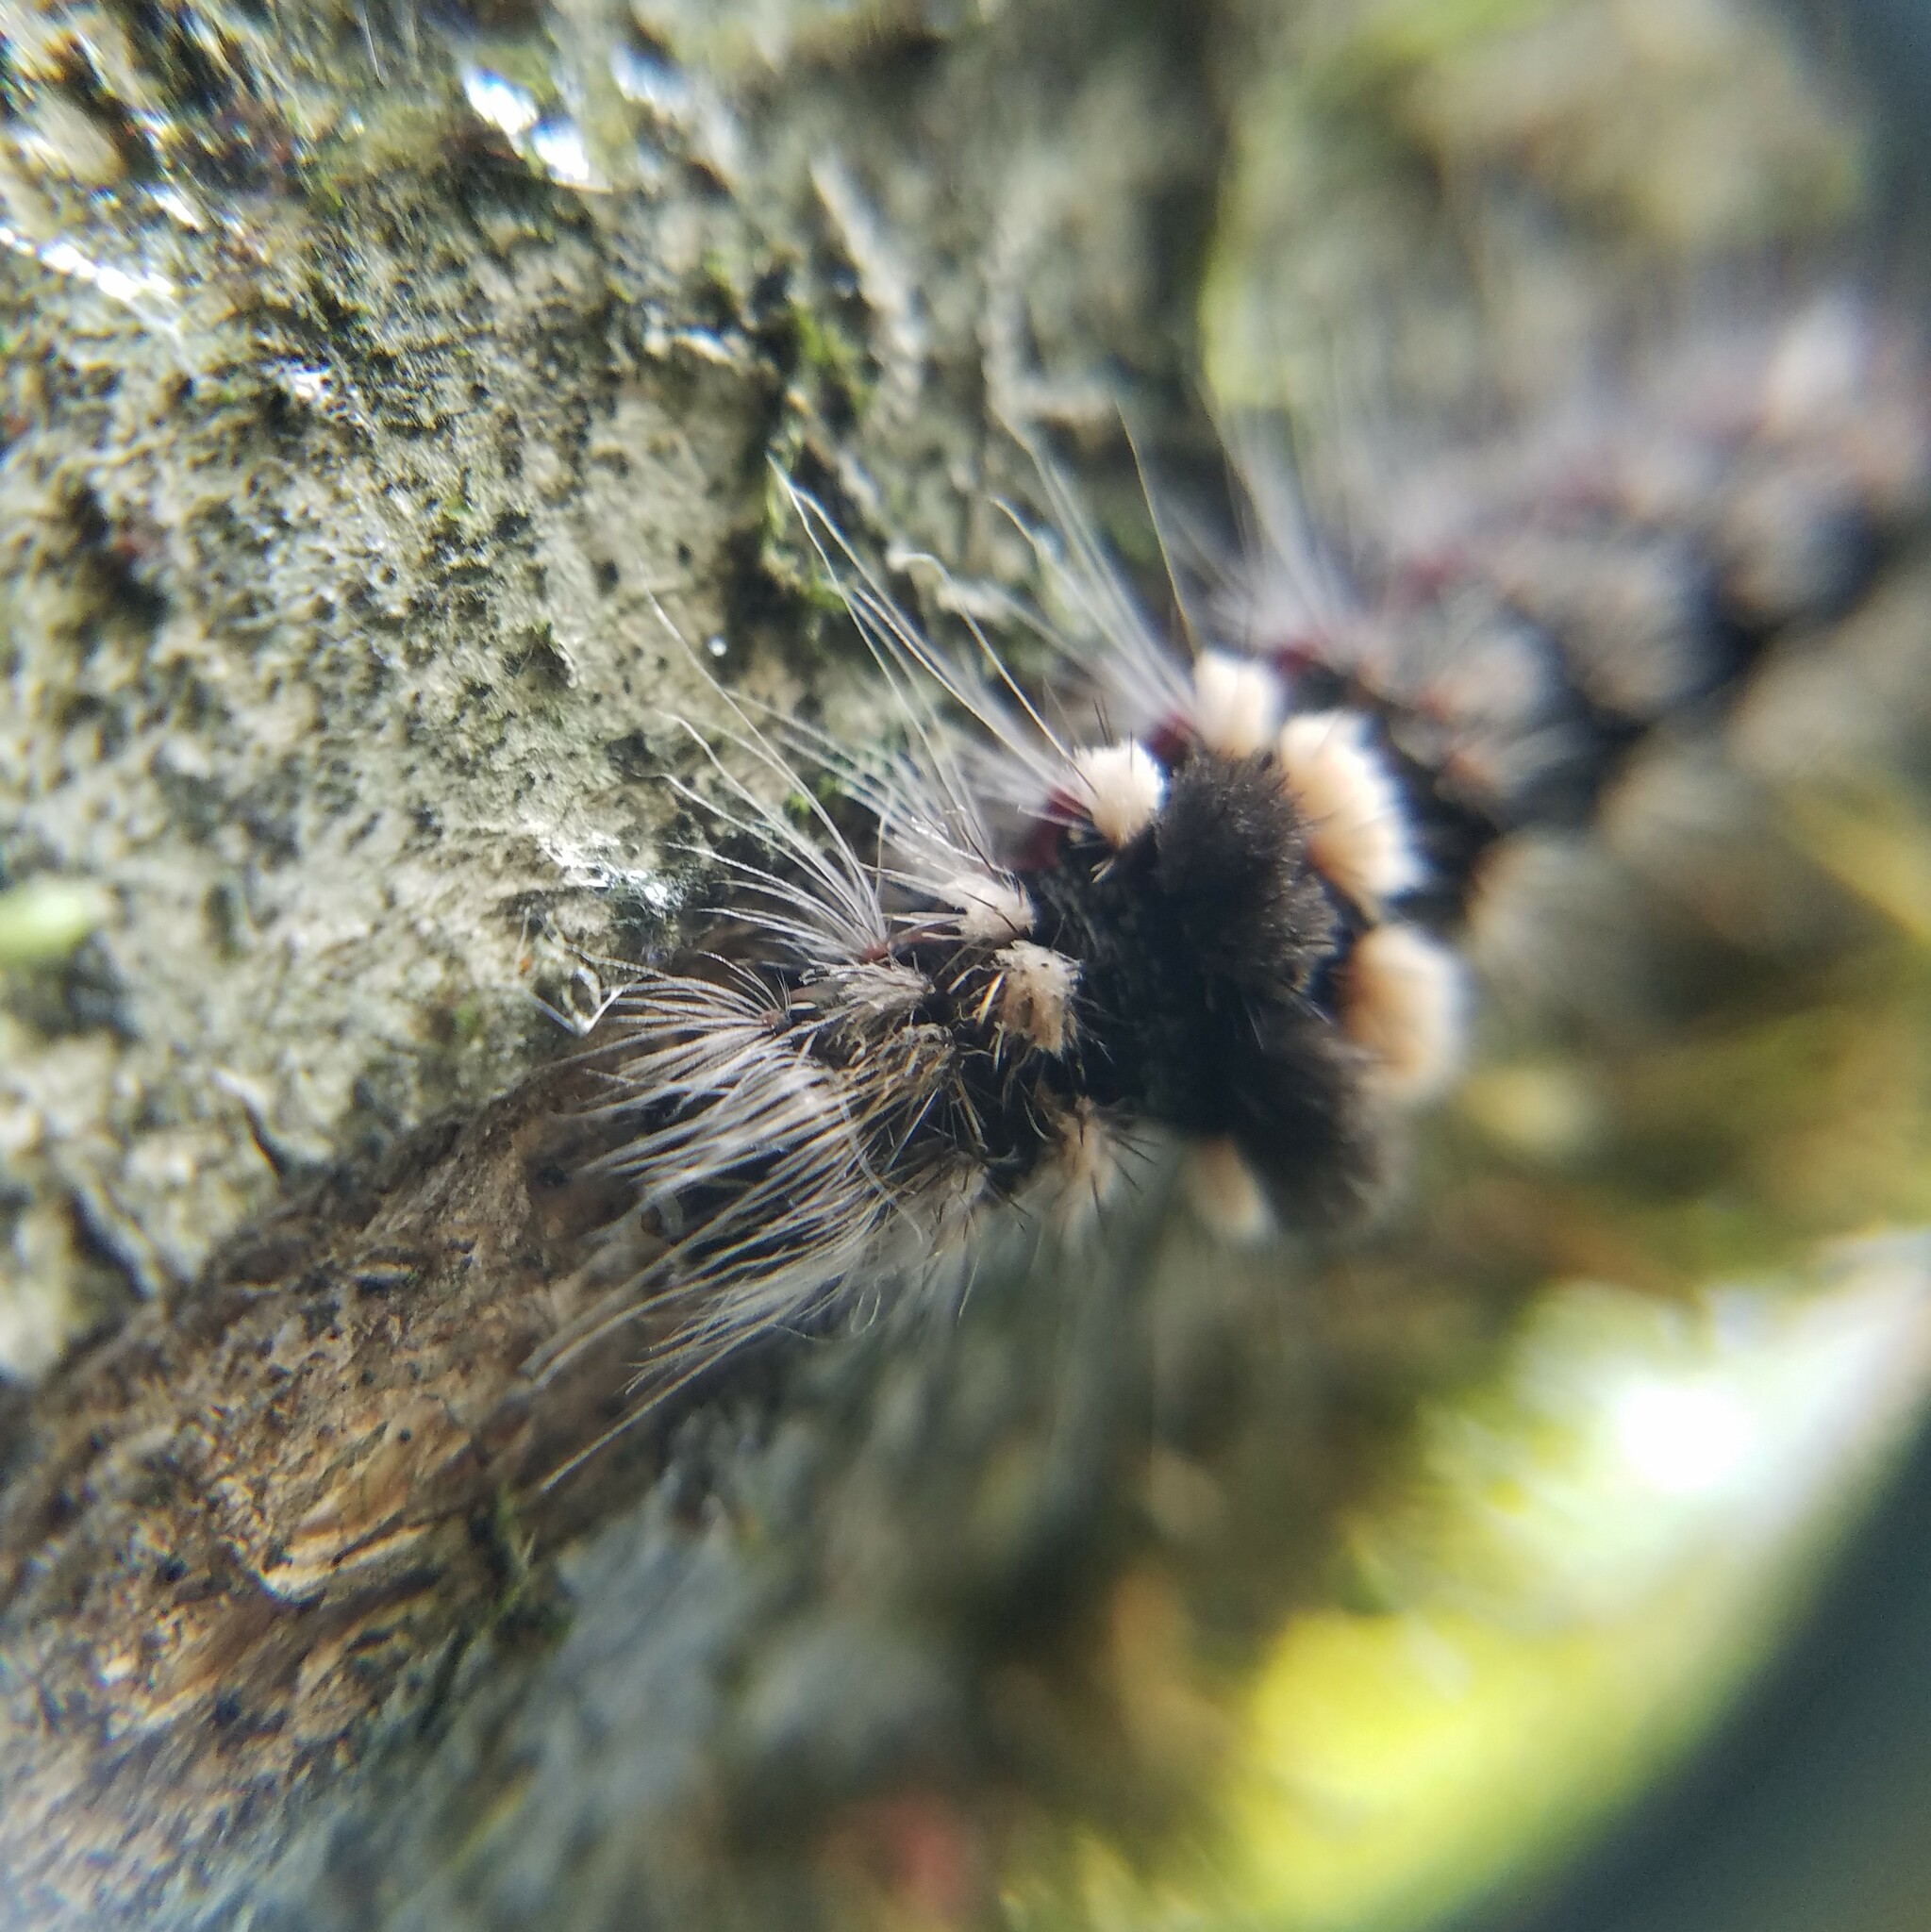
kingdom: Animalia
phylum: Arthropoda
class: Insecta
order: Lepidoptera
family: Noctuidae
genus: Acronicta
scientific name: Acronicta impleta
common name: Powdered dagger
